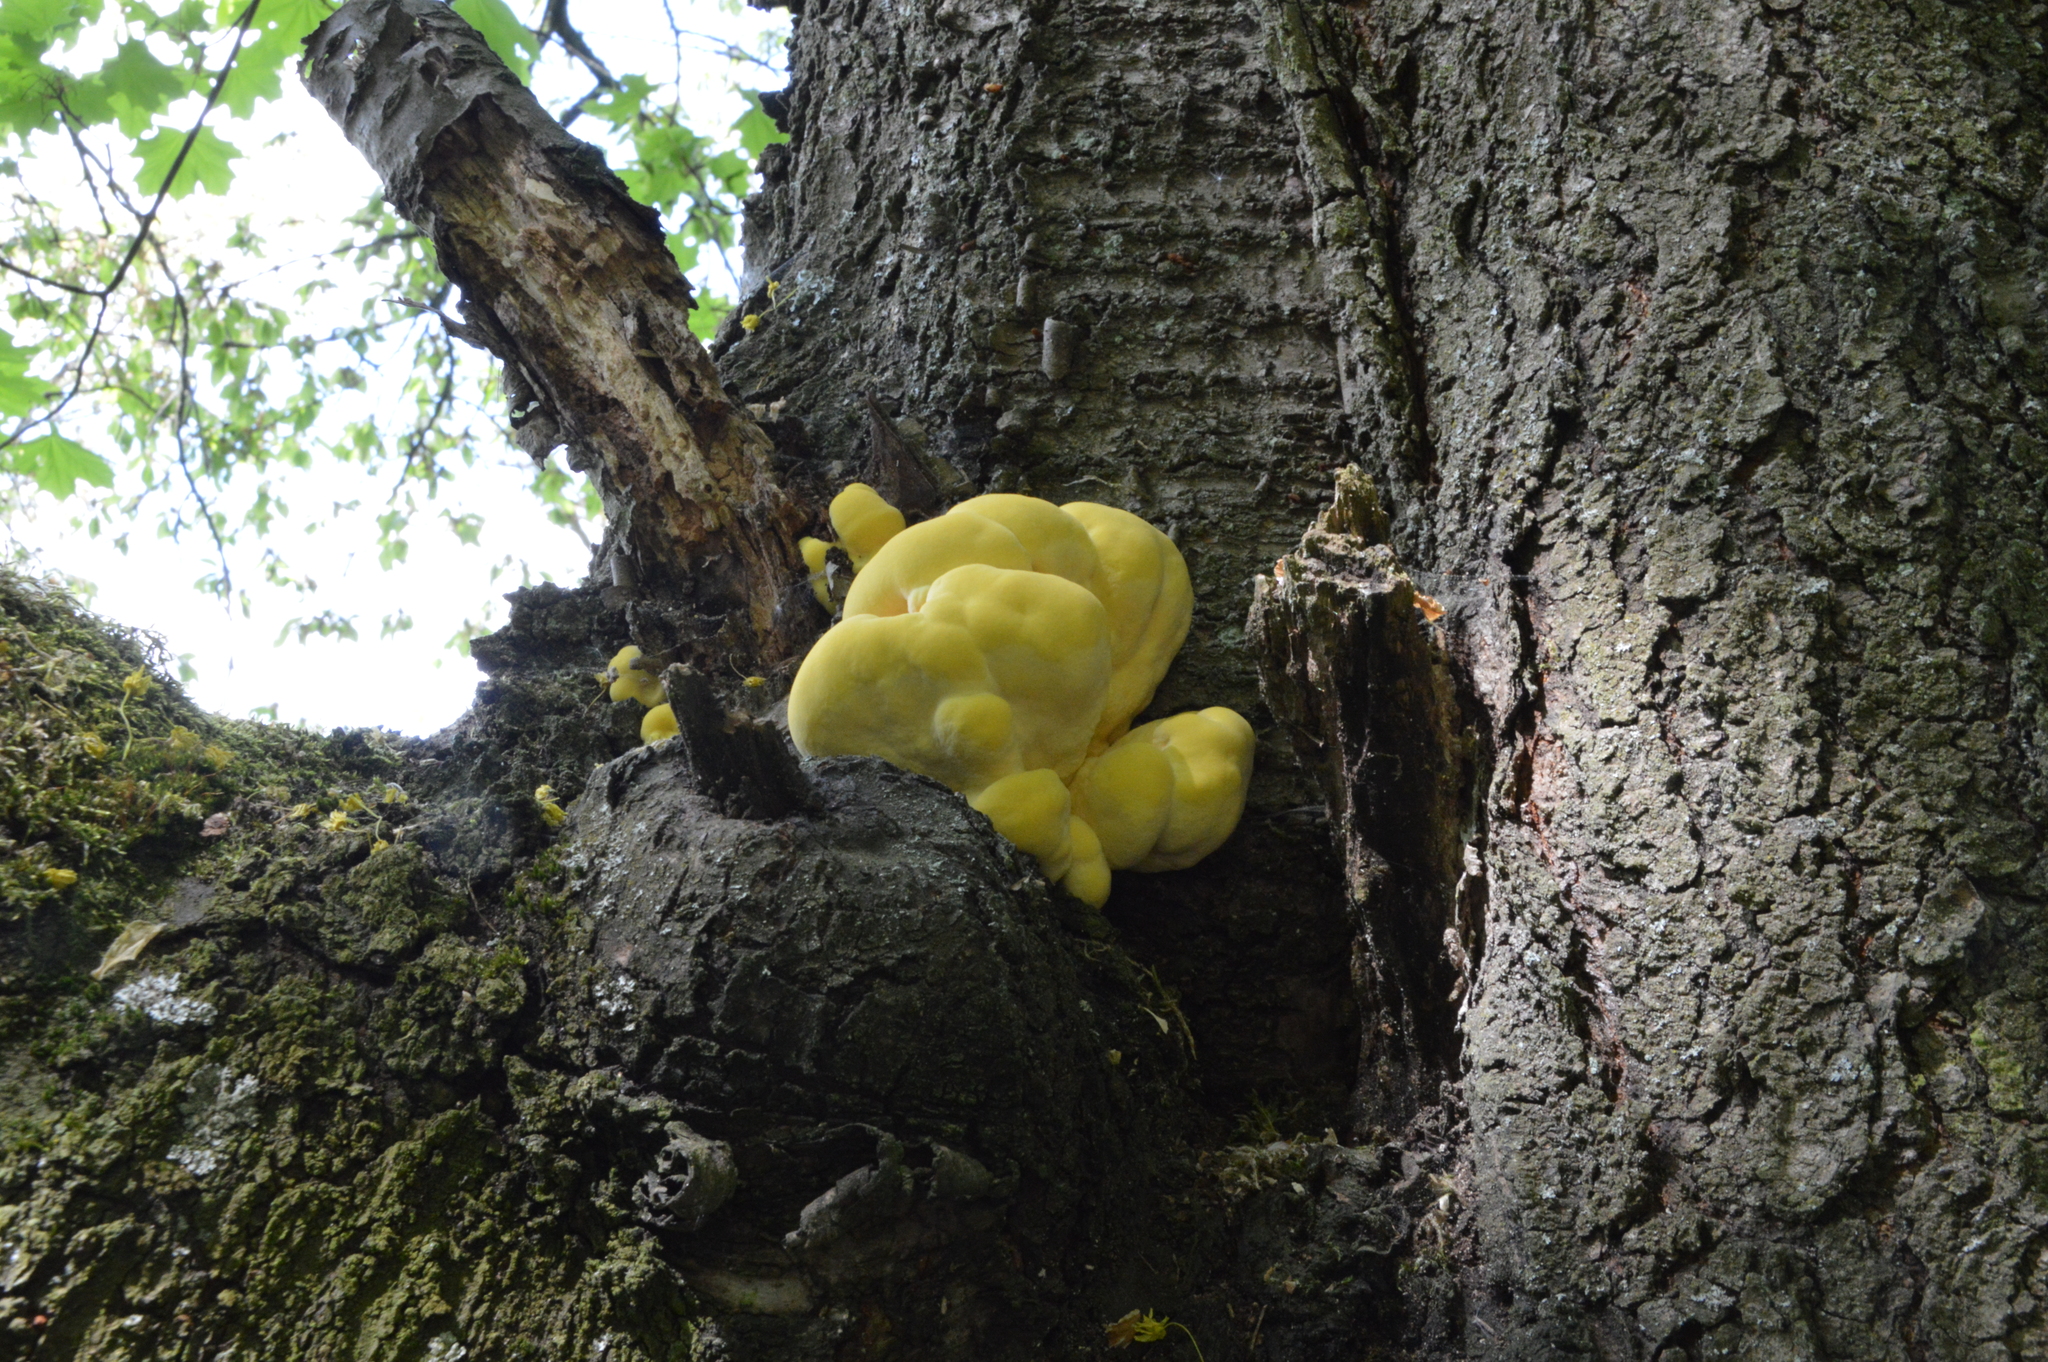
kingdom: Fungi
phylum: Basidiomycota
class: Agaricomycetes
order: Polyporales
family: Laetiporaceae
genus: Laetiporus
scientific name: Laetiporus sulphureus
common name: Chicken of the woods
